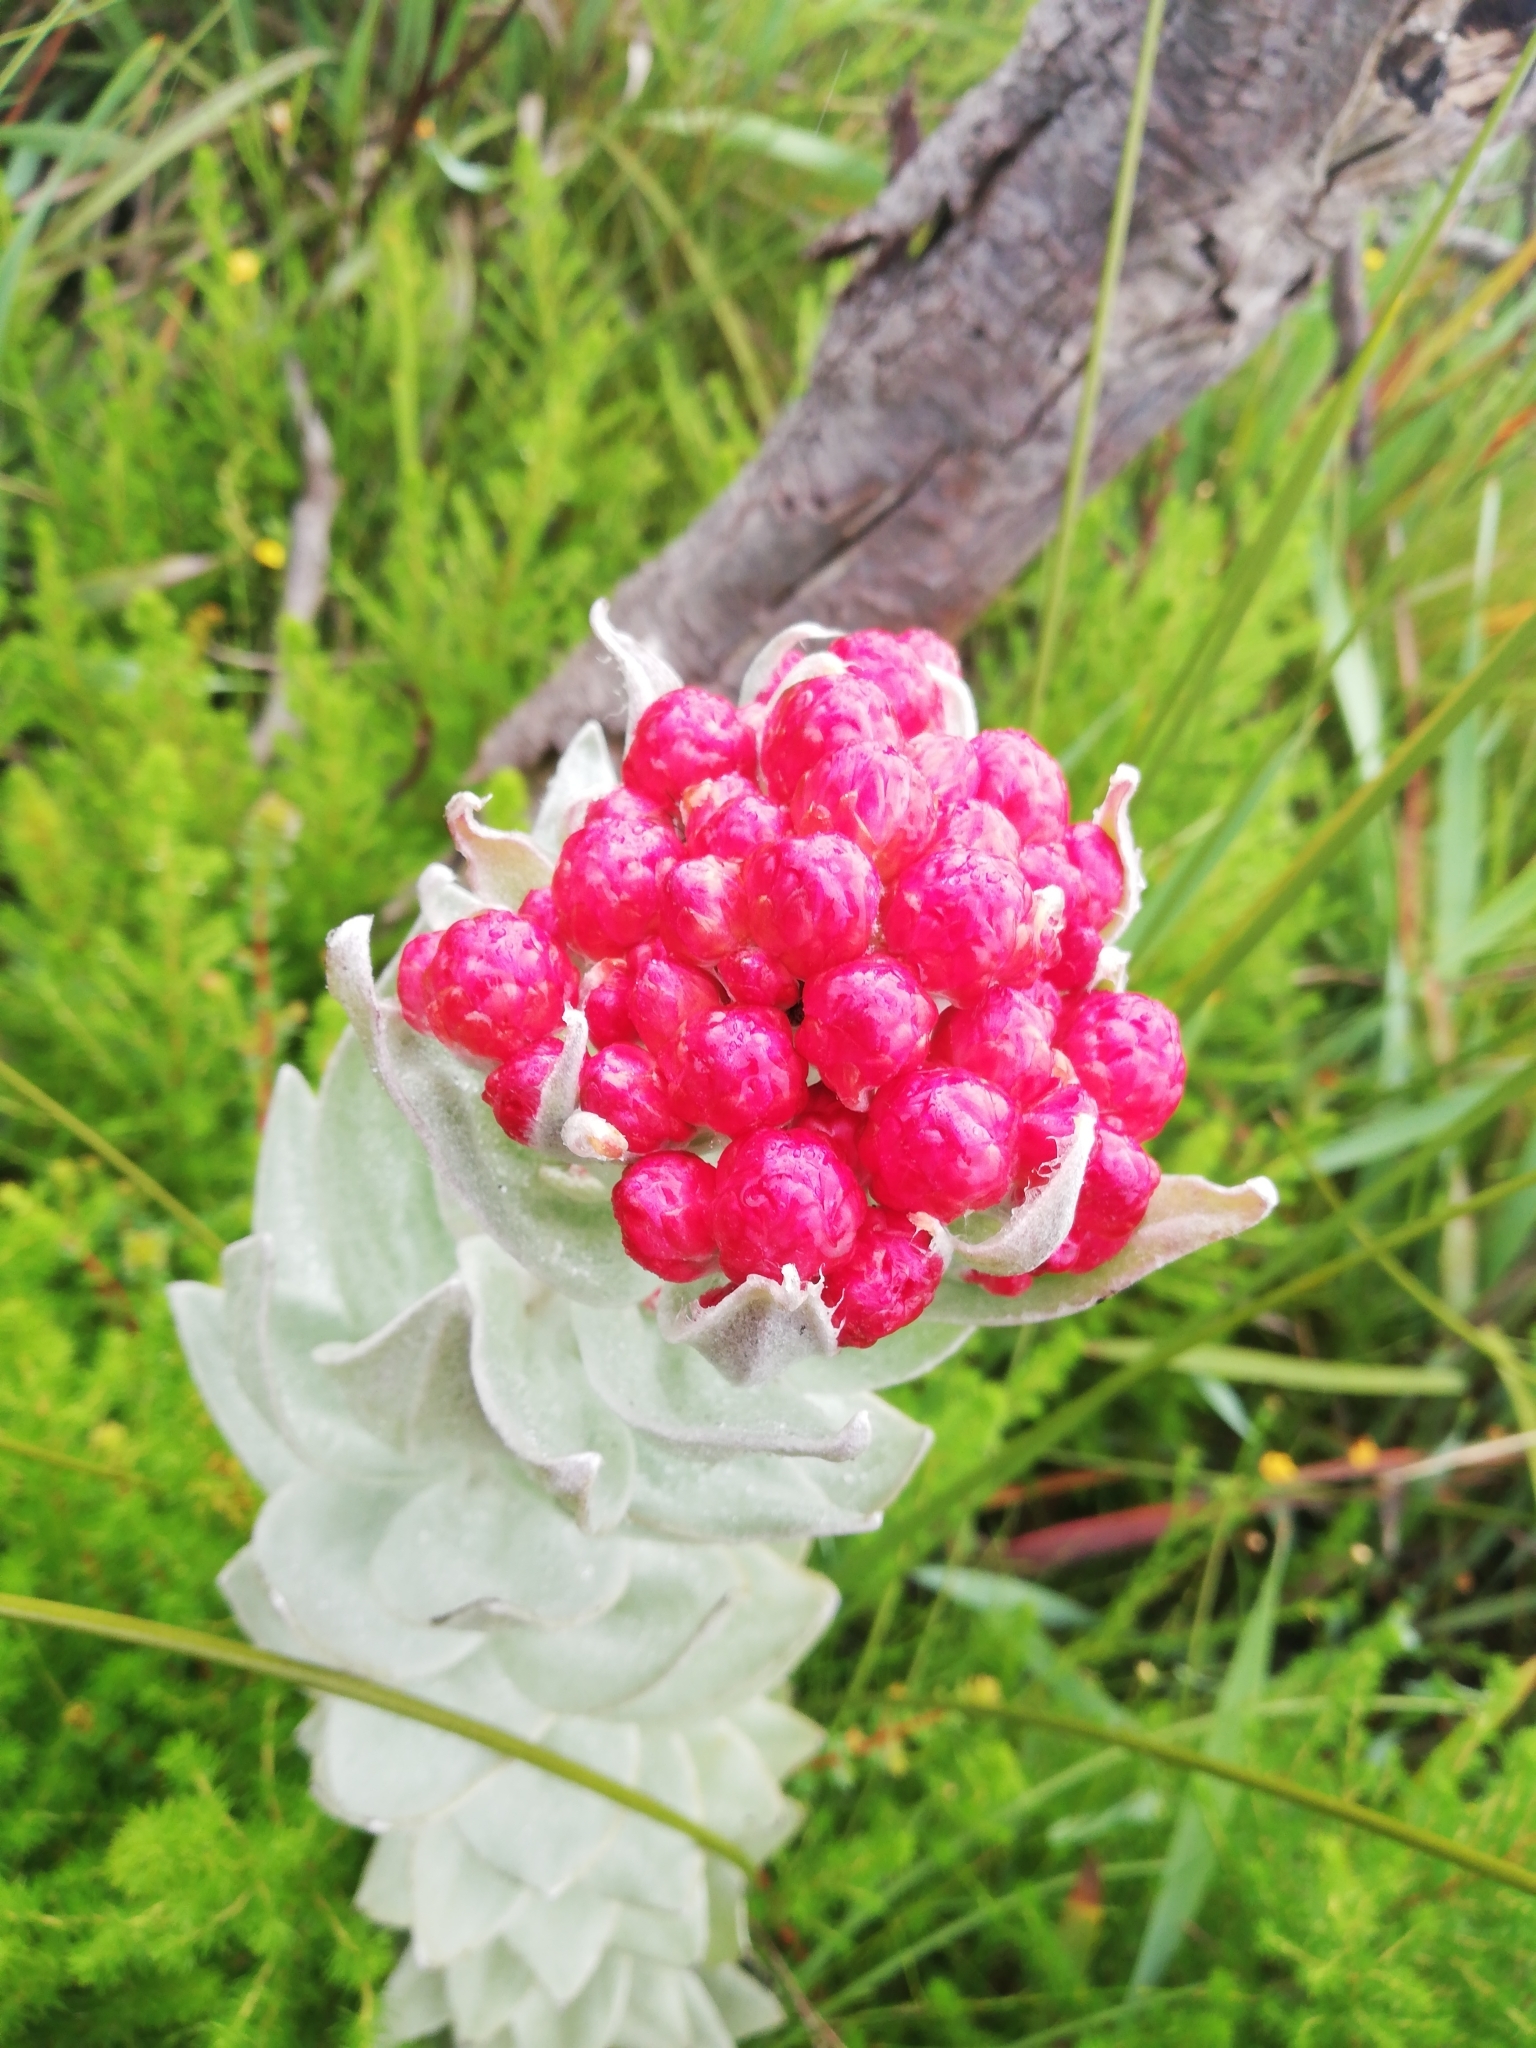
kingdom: Plantae
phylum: Tracheophyta
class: Magnoliopsida
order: Asterales
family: Asteraceae
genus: Syncarpha
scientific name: Syncarpha eximia
